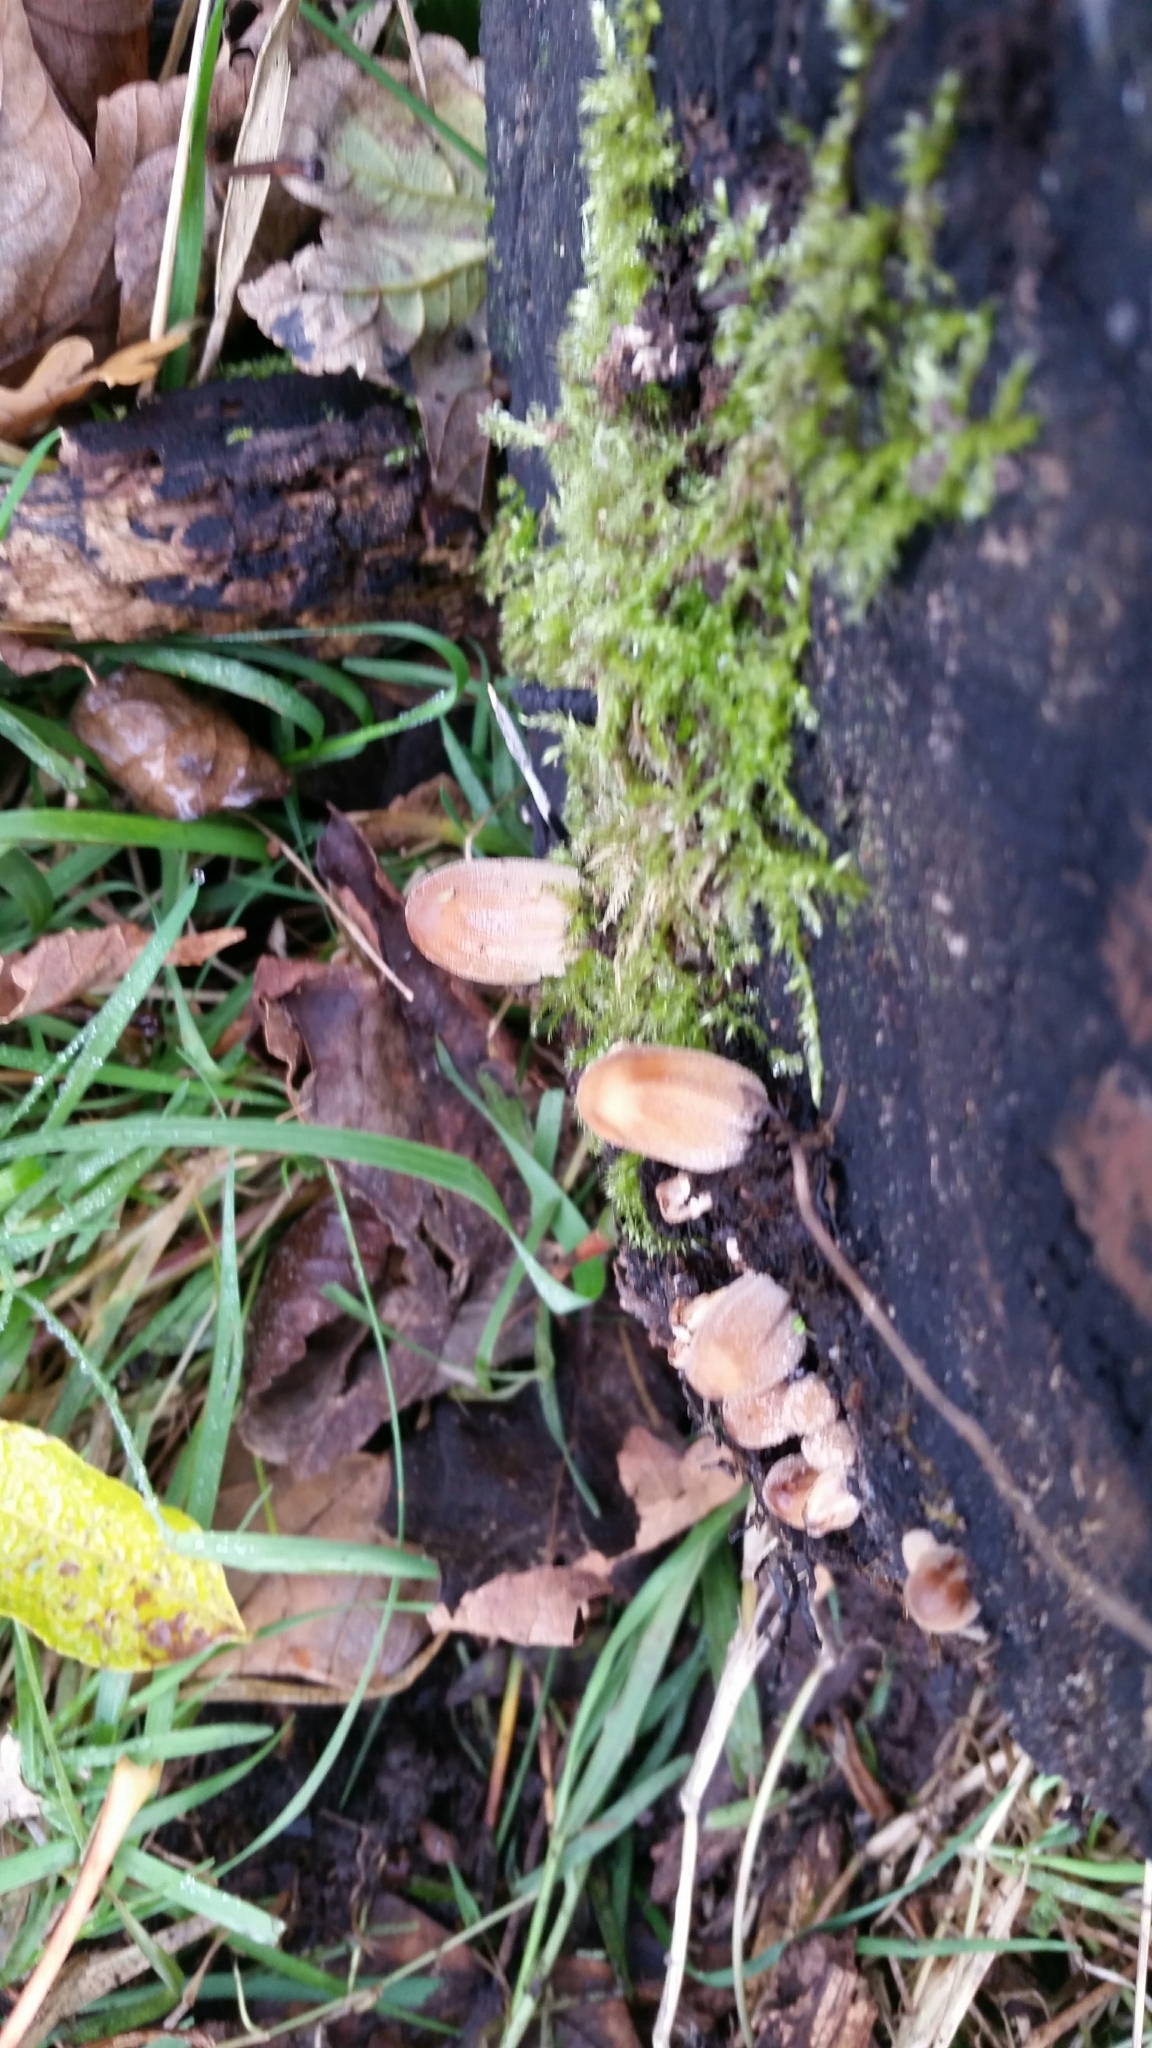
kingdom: Fungi
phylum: Basidiomycota
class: Agaricomycetes
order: Agaricales
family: Psathyrellaceae
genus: Coprinellus
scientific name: Coprinellus micaceus
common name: Glistening ink-cap
